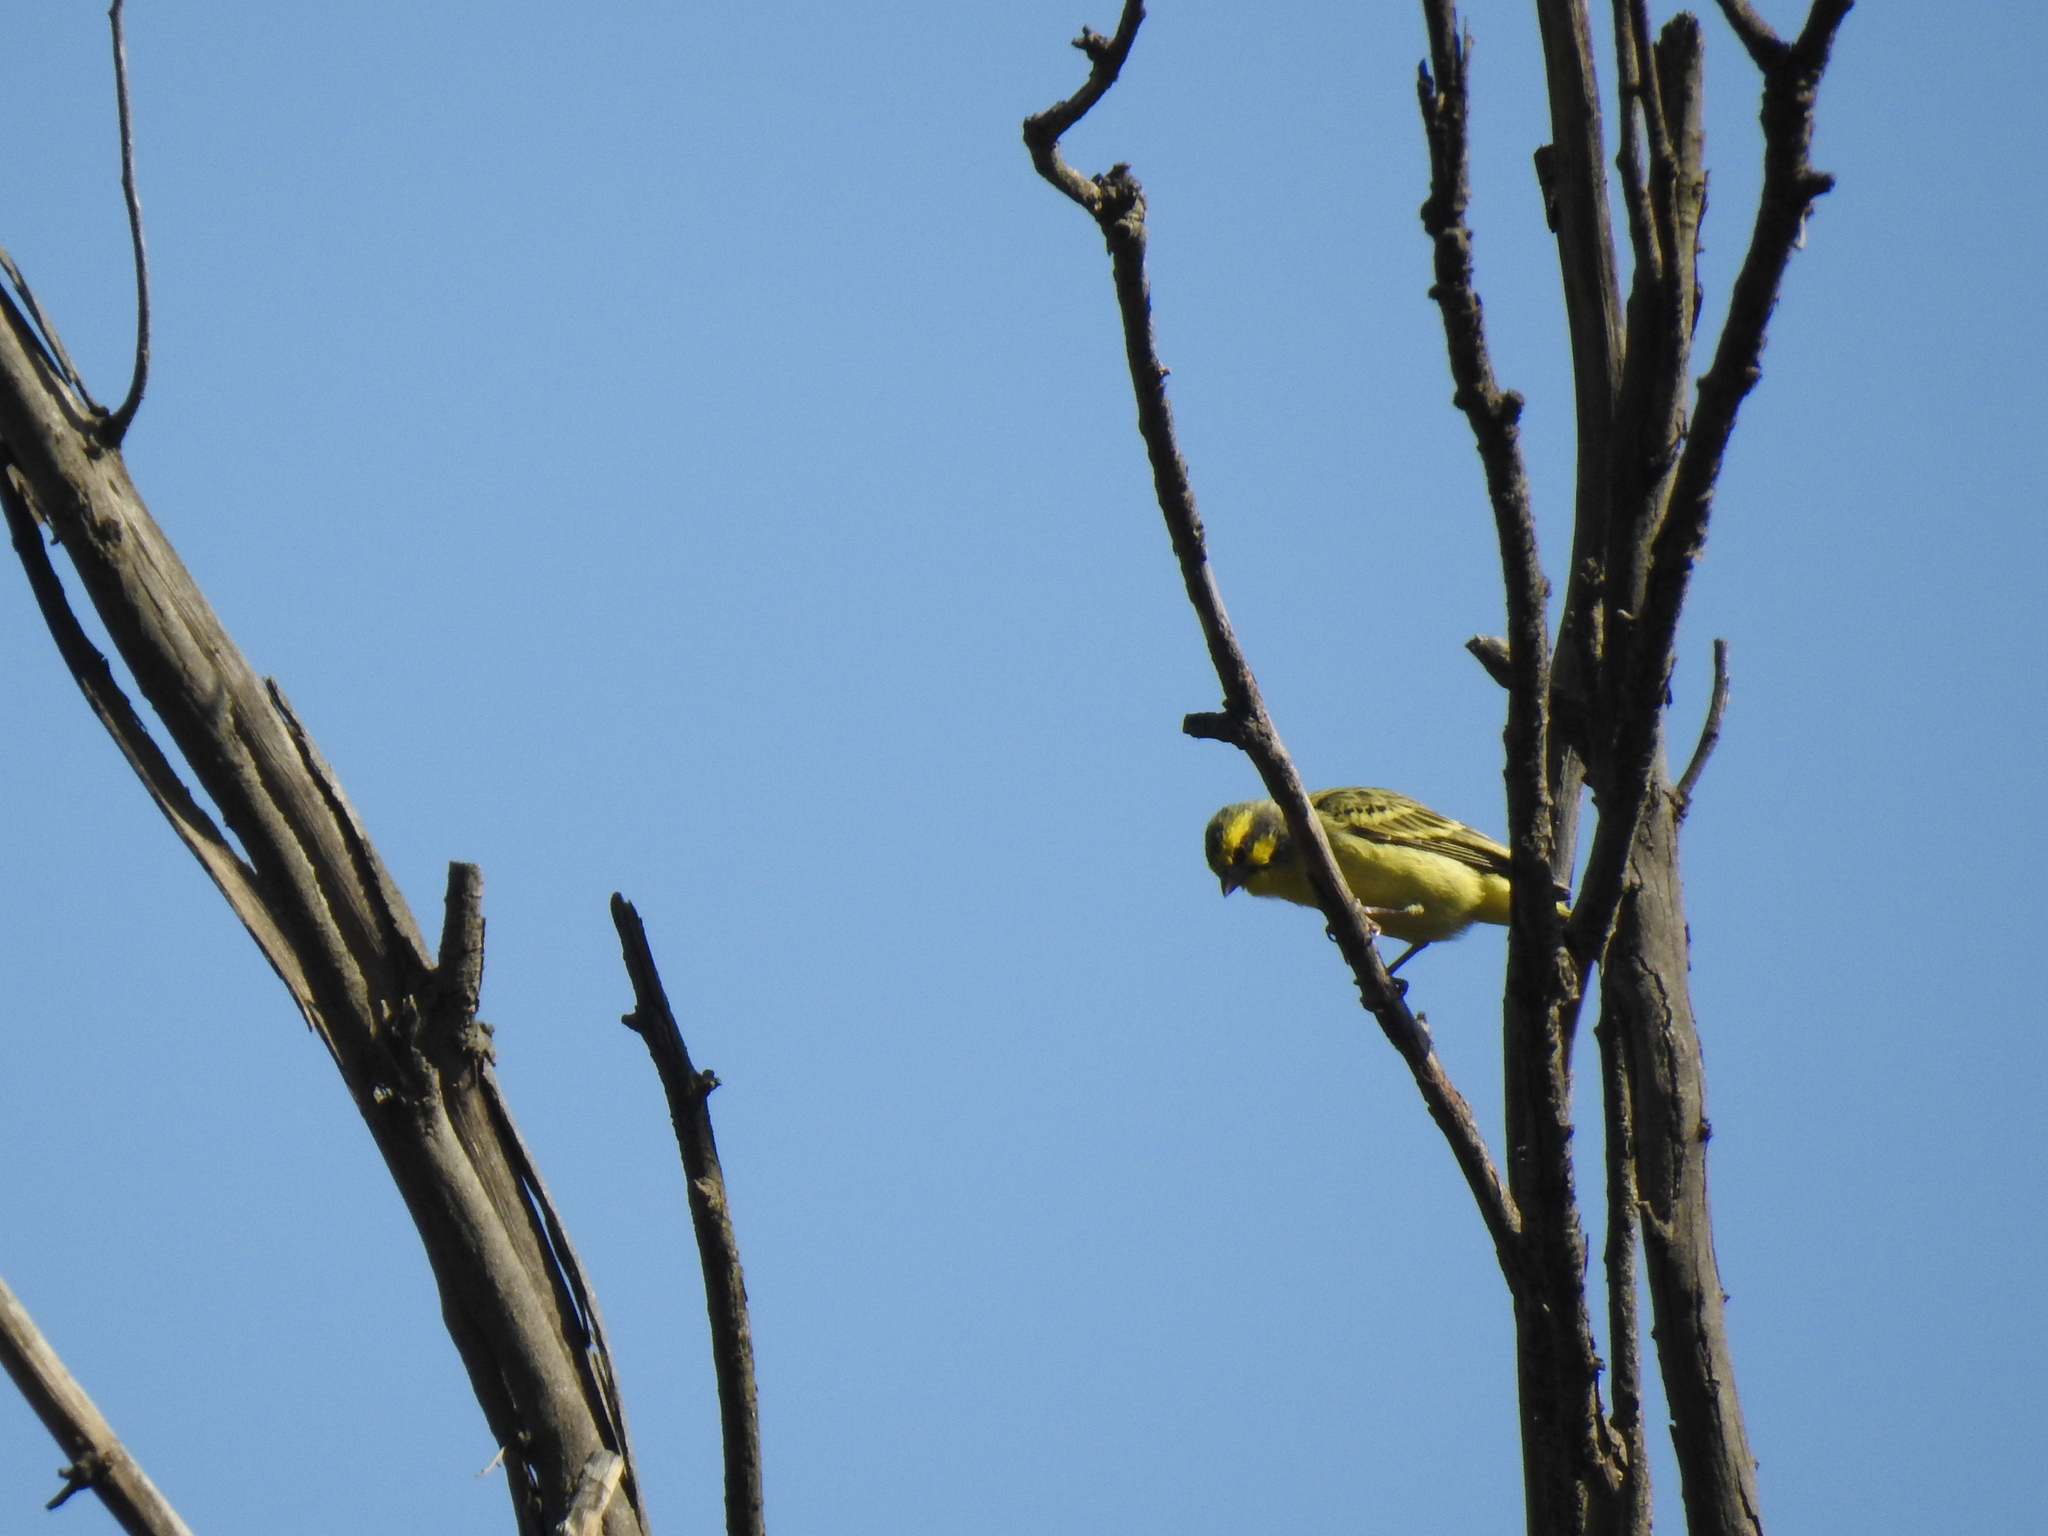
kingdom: Animalia
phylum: Chordata
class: Aves
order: Passeriformes
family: Fringillidae
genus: Crithagra
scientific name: Crithagra mozambica
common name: Yellow-fronted canary
